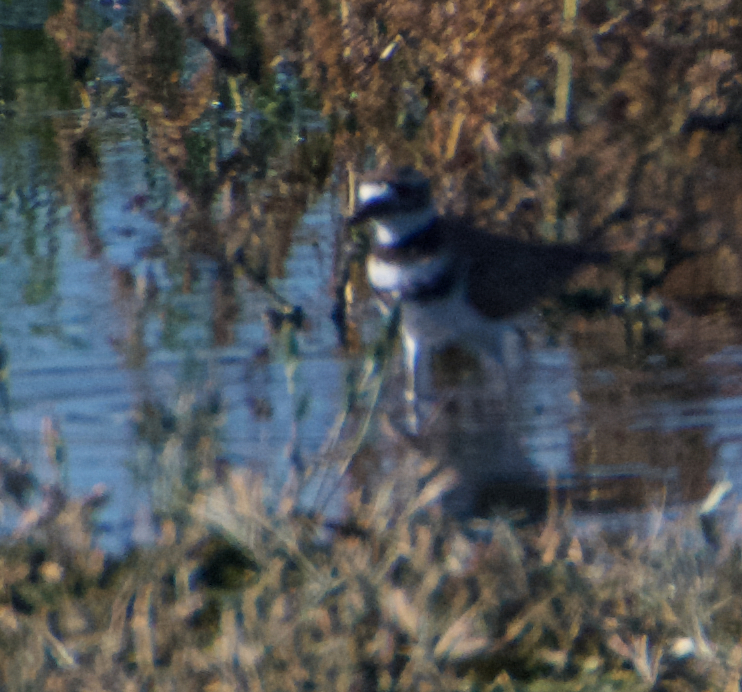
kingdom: Animalia
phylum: Chordata
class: Aves
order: Charadriiformes
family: Charadriidae
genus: Charadrius
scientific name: Charadrius vociferus
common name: Killdeer
